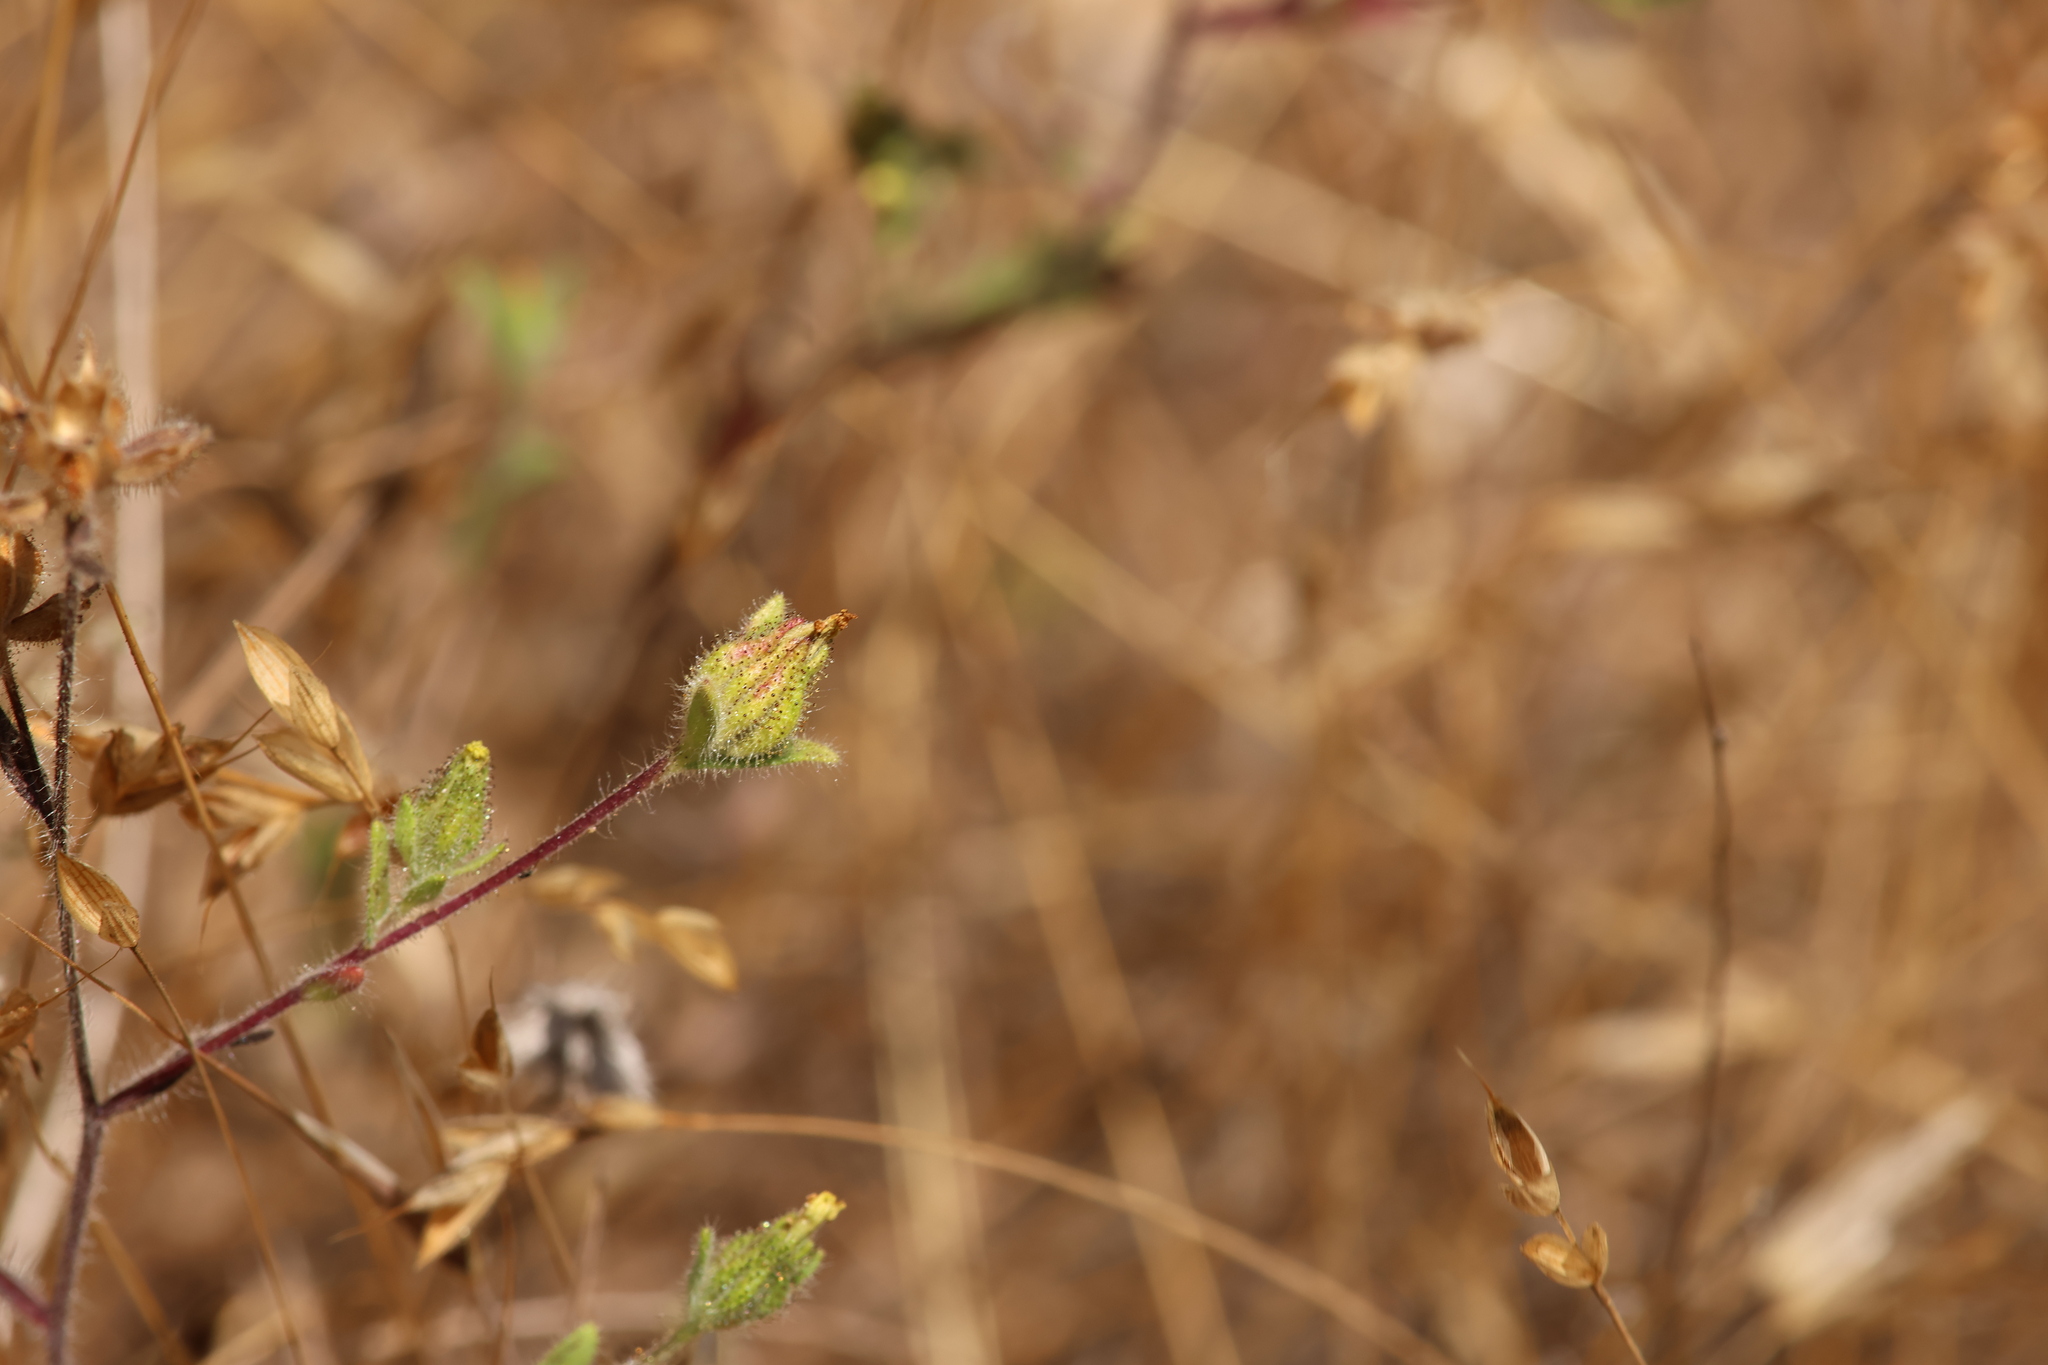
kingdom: Plantae
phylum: Tracheophyta
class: Magnoliopsida
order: Asterales
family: Asteraceae
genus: Madia
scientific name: Madia gracilis
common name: Grassy tarweed
